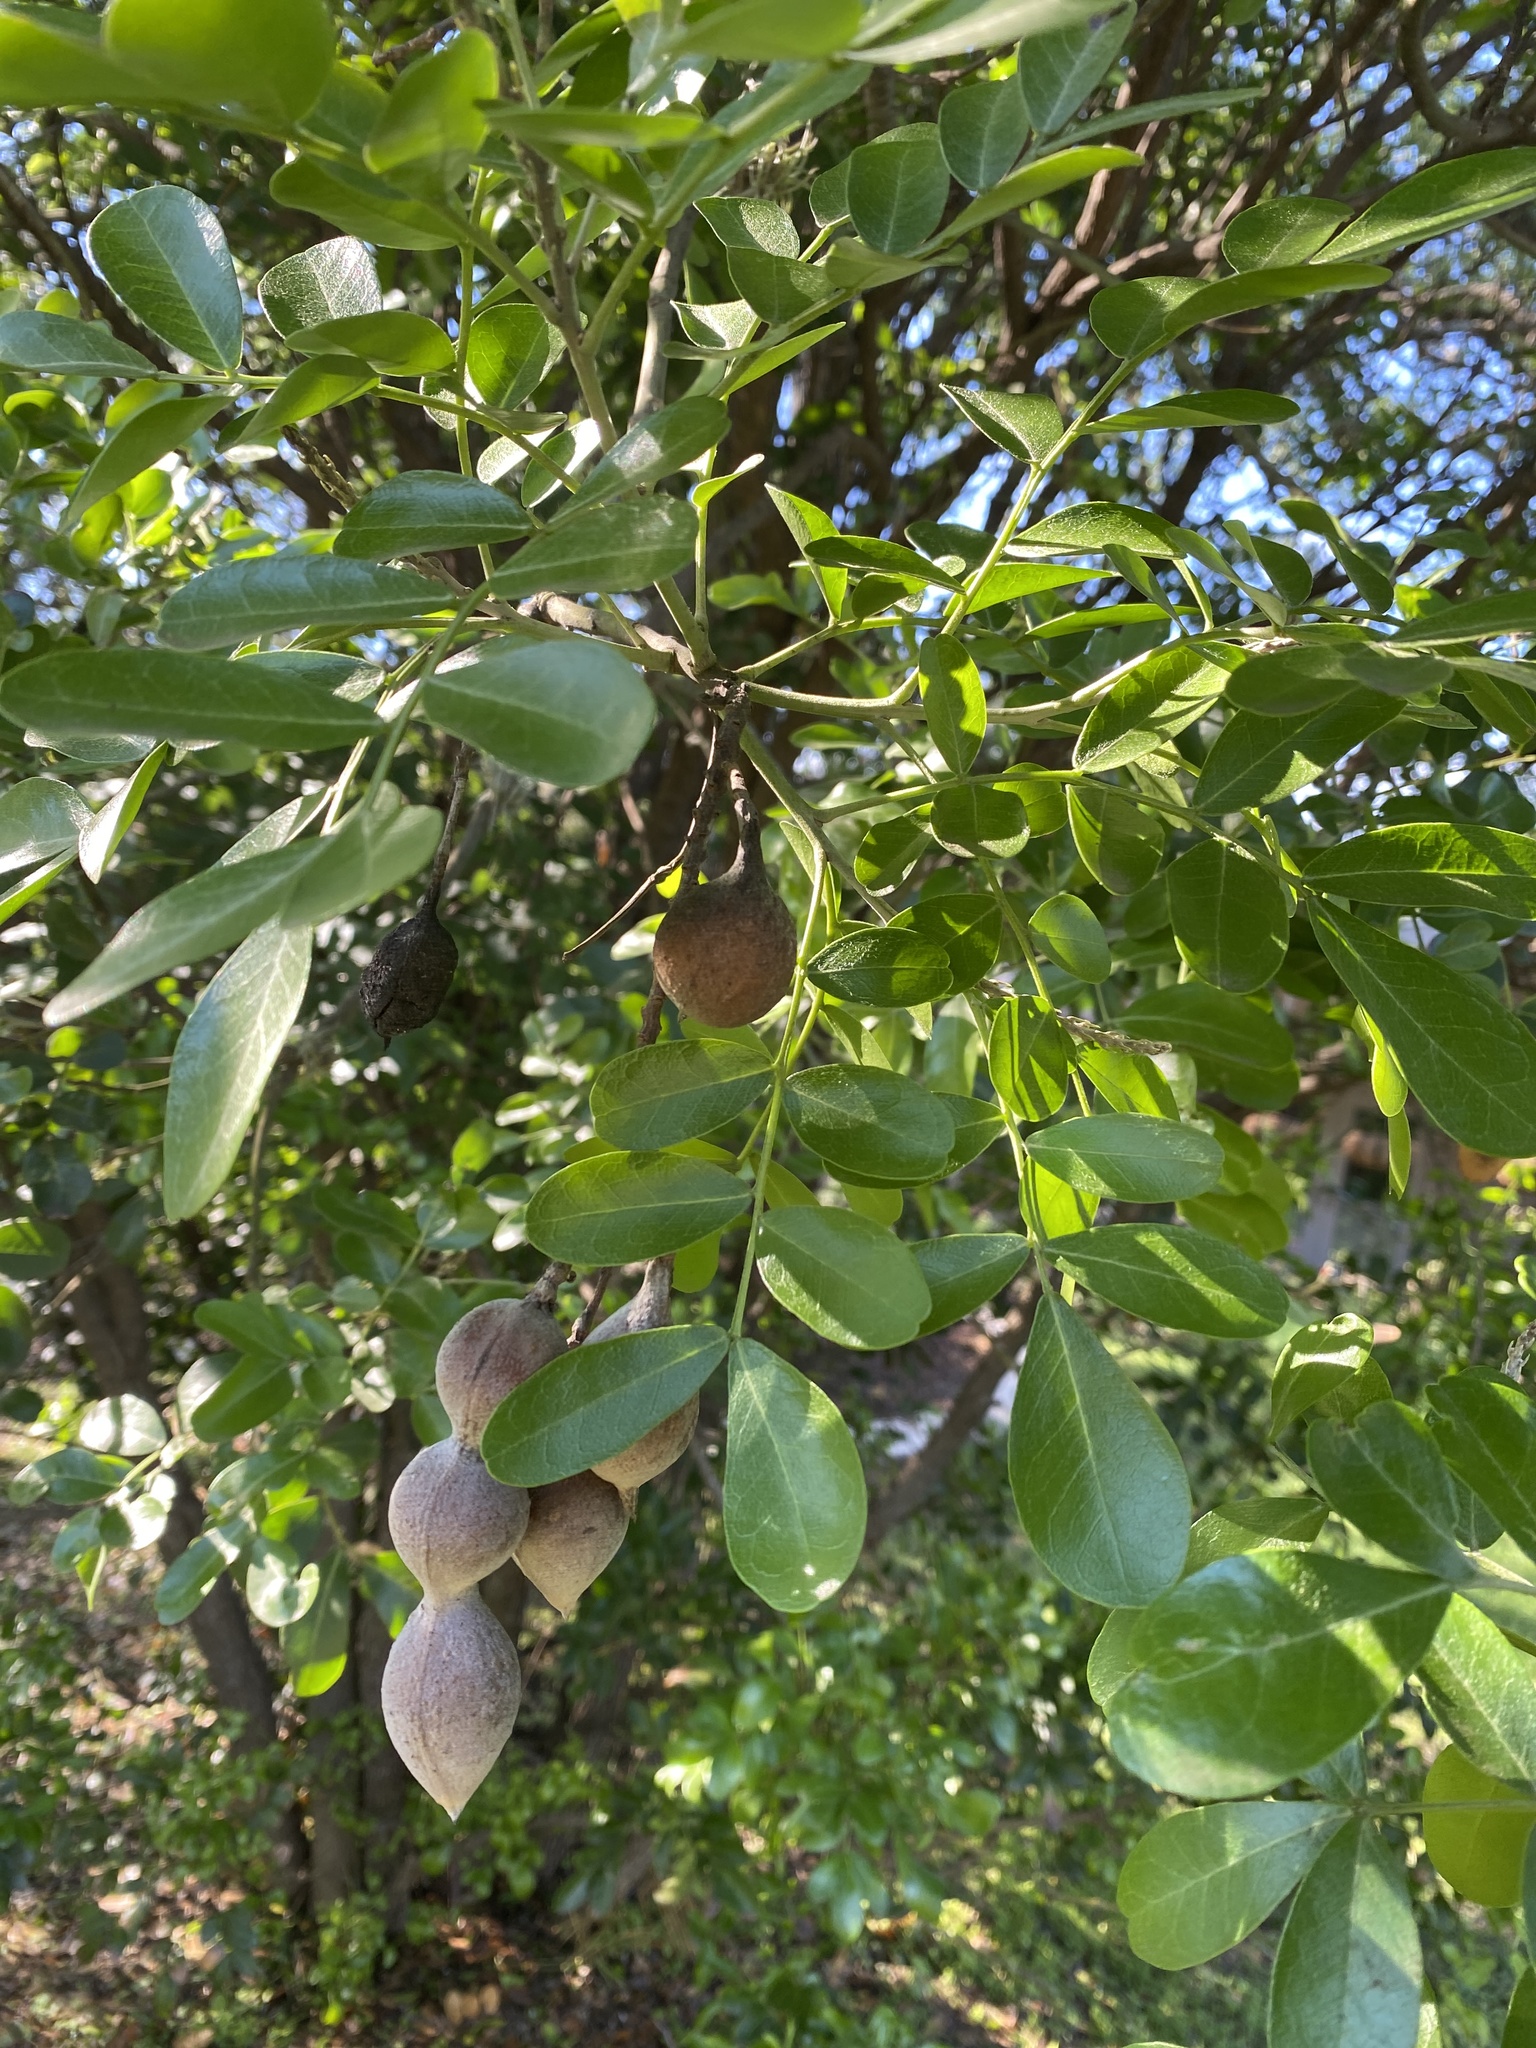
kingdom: Plantae
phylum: Tracheophyta
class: Magnoliopsida
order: Fabales
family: Fabaceae
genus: Dermatophyllum
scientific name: Dermatophyllum secundiflorum
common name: Texas-mountain-laurel
